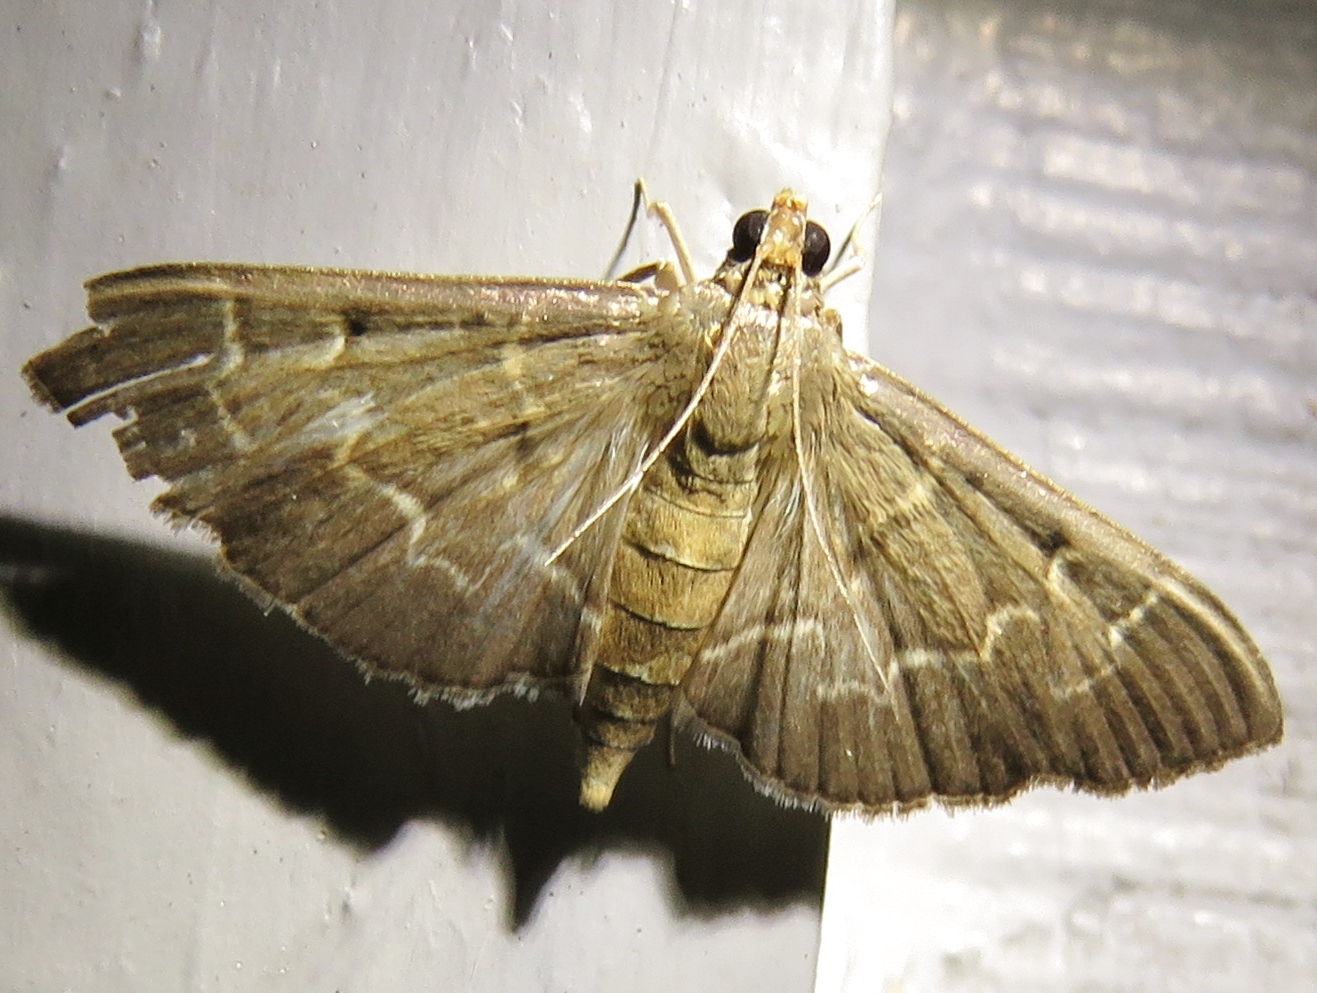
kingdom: Animalia
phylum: Arthropoda
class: Insecta
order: Lepidoptera
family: Crambidae
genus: Pilocrocis
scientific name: Pilocrocis ramentalis
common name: Scraped pilocrocis
